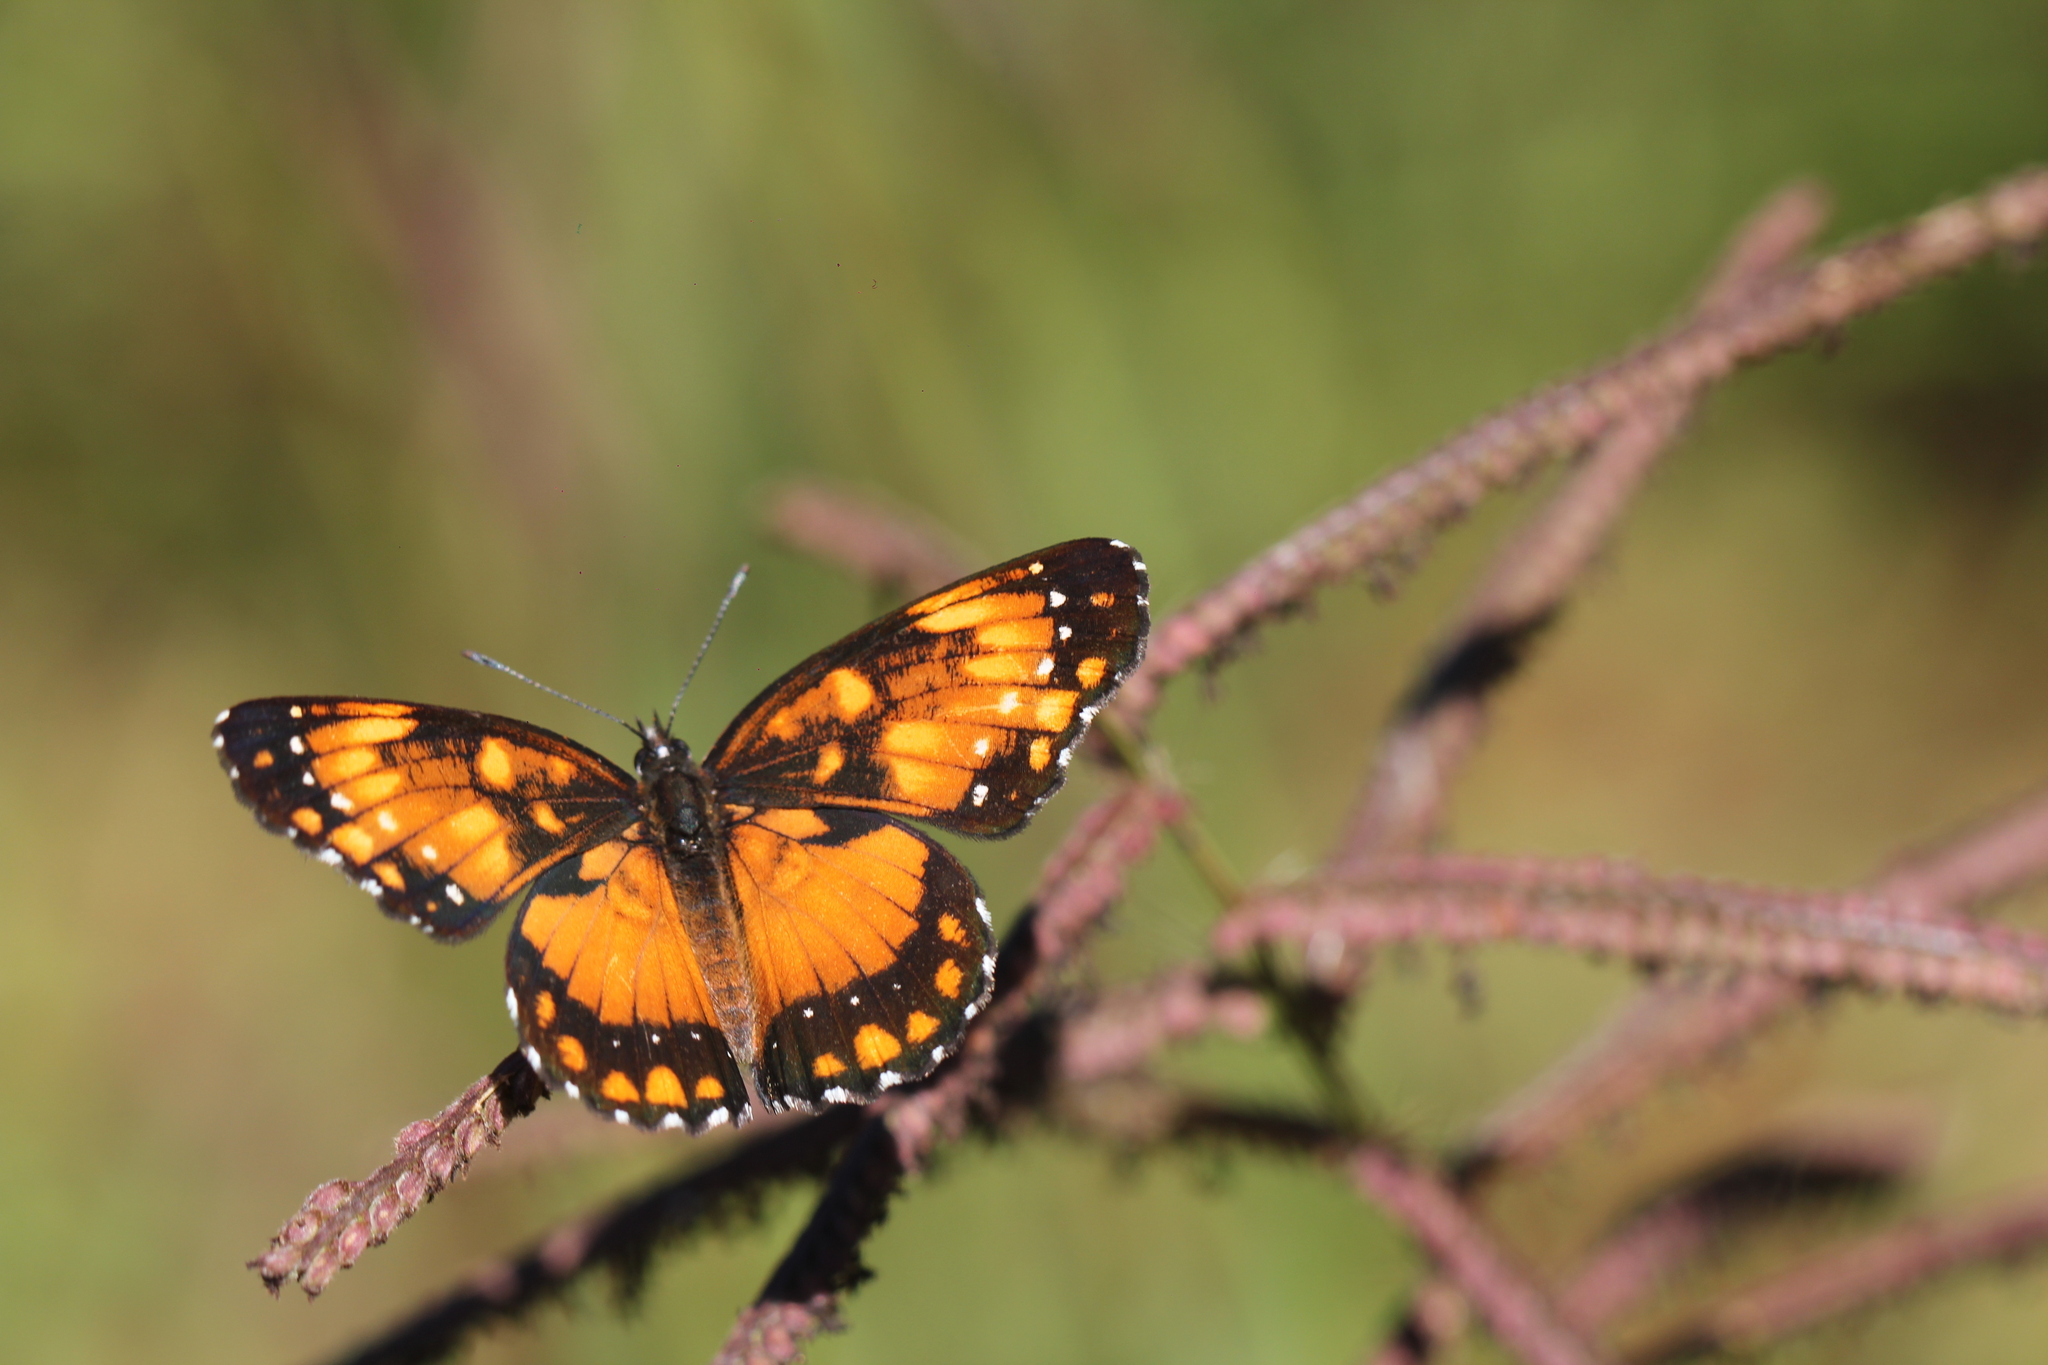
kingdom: Animalia
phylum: Arthropoda
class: Insecta
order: Lepidoptera
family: Nymphalidae
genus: Chlosyne
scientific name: Chlosyne lacinia
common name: Bordered patch
